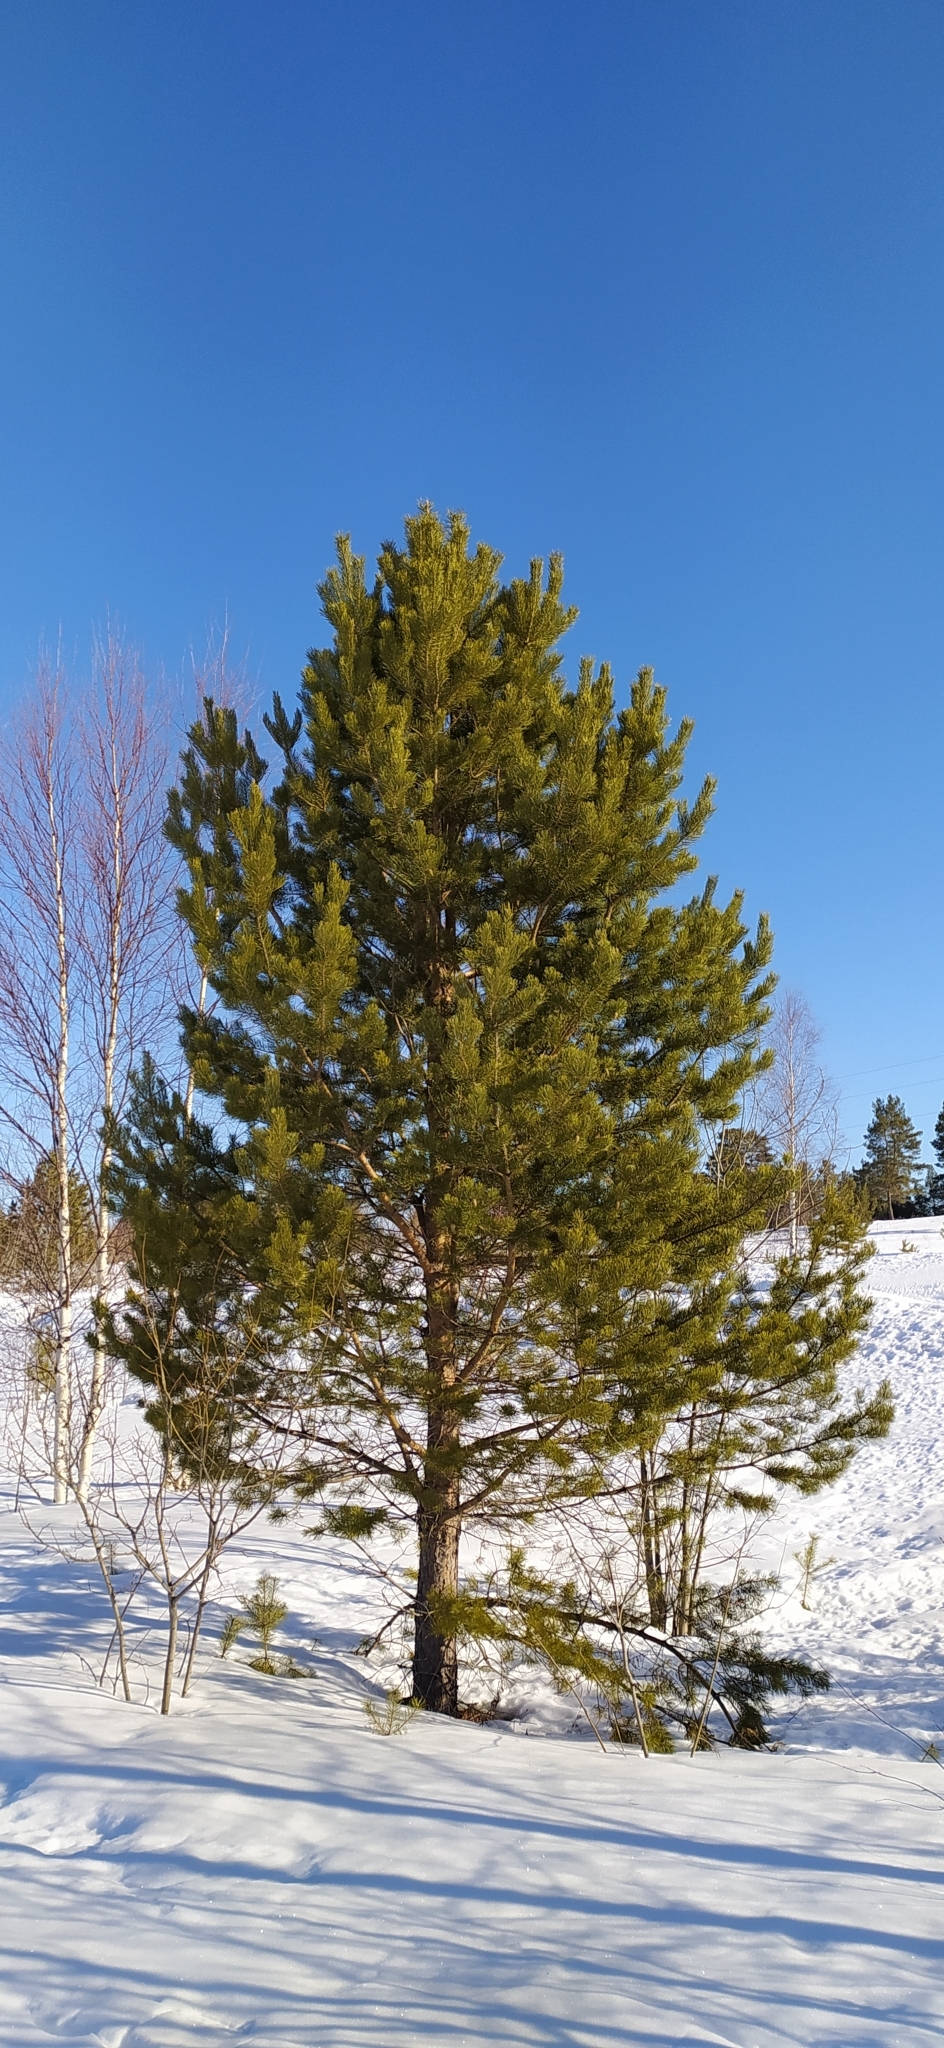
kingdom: Plantae
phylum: Tracheophyta
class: Pinopsida
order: Pinales
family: Pinaceae
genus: Pinus
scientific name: Pinus sylvestris
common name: Scots pine
